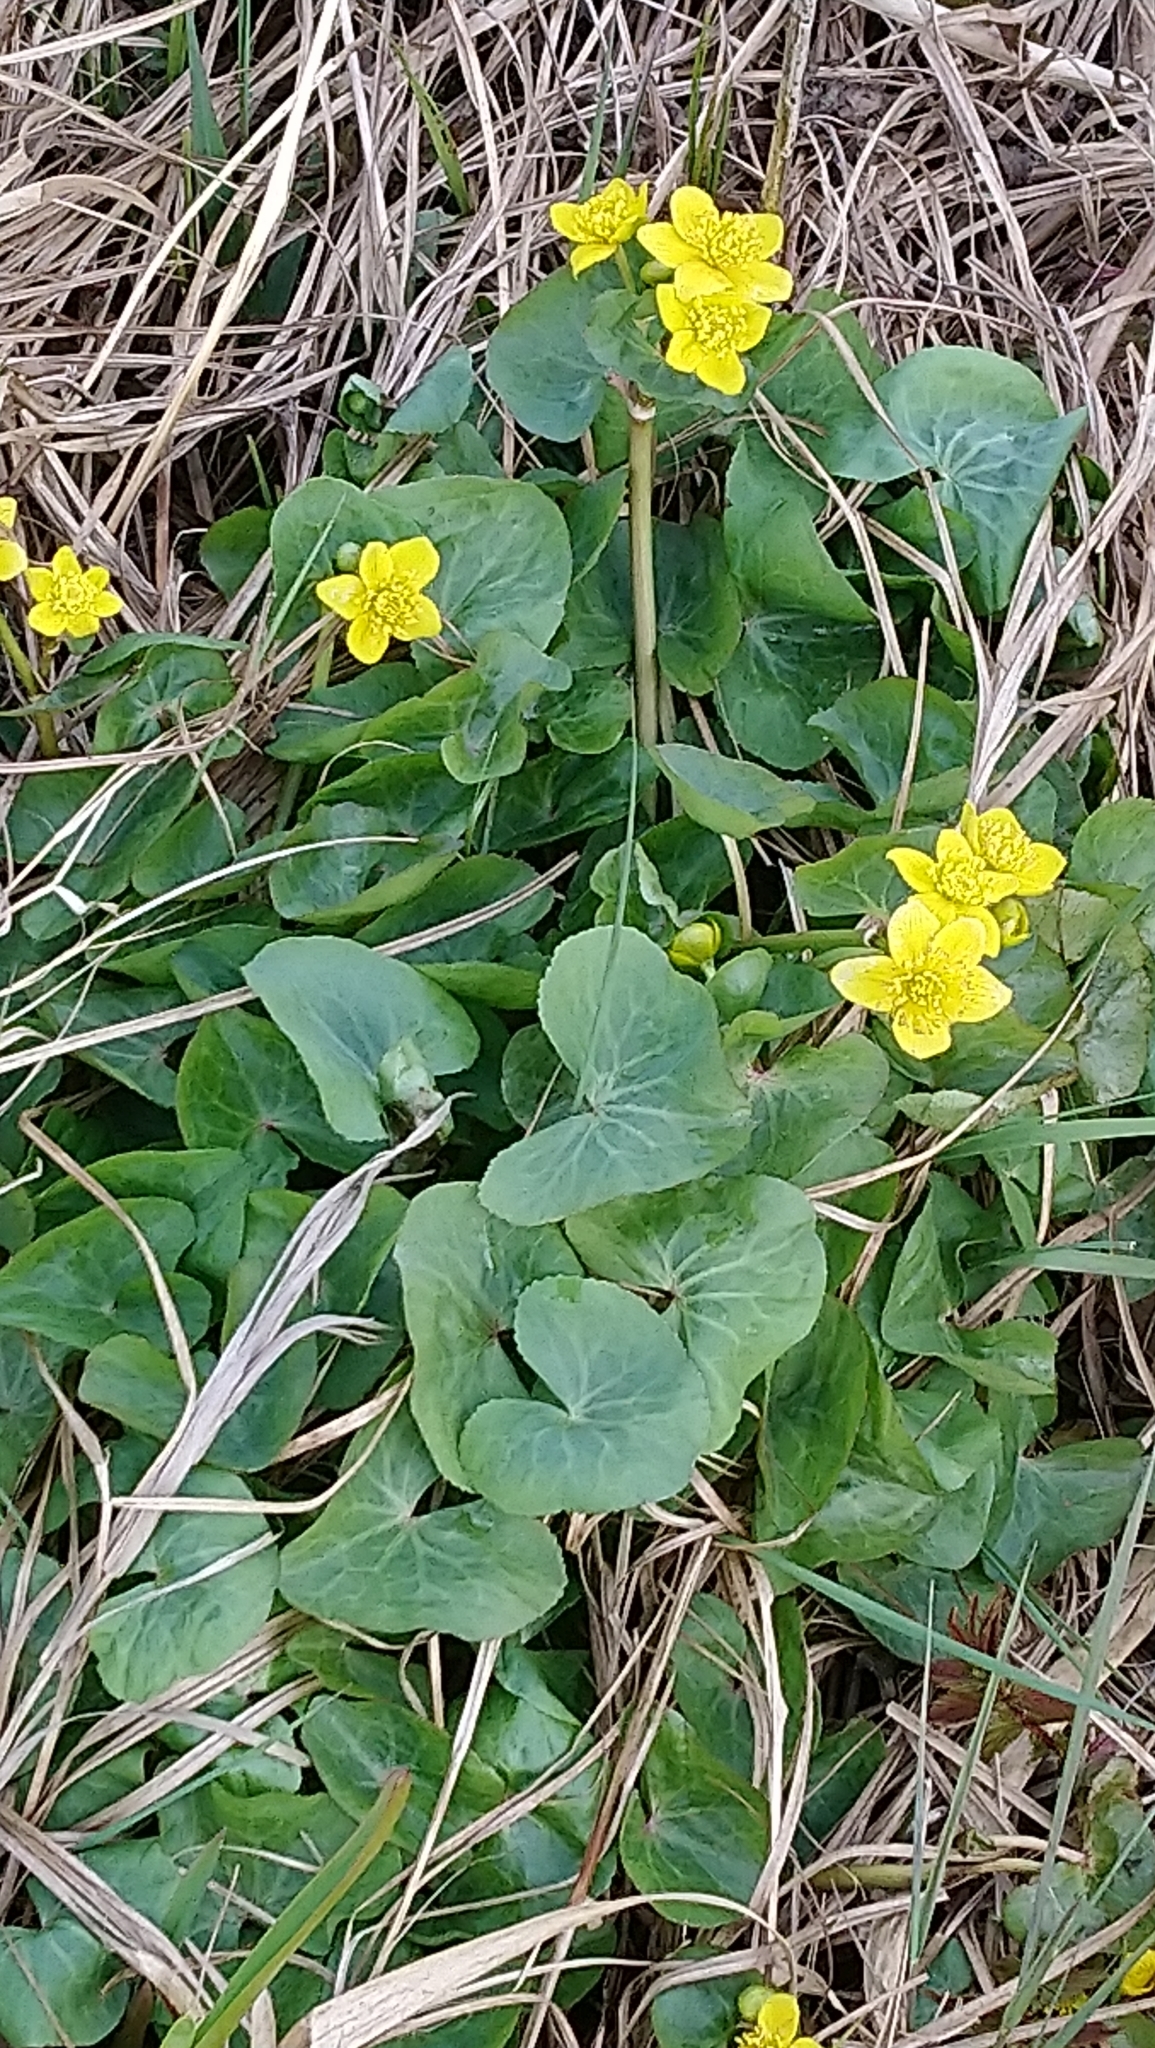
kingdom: Plantae
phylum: Tracheophyta
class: Magnoliopsida
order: Ranunculales
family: Ranunculaceae
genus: Caltha
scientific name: Caltha palustris
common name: Marsh marigold
